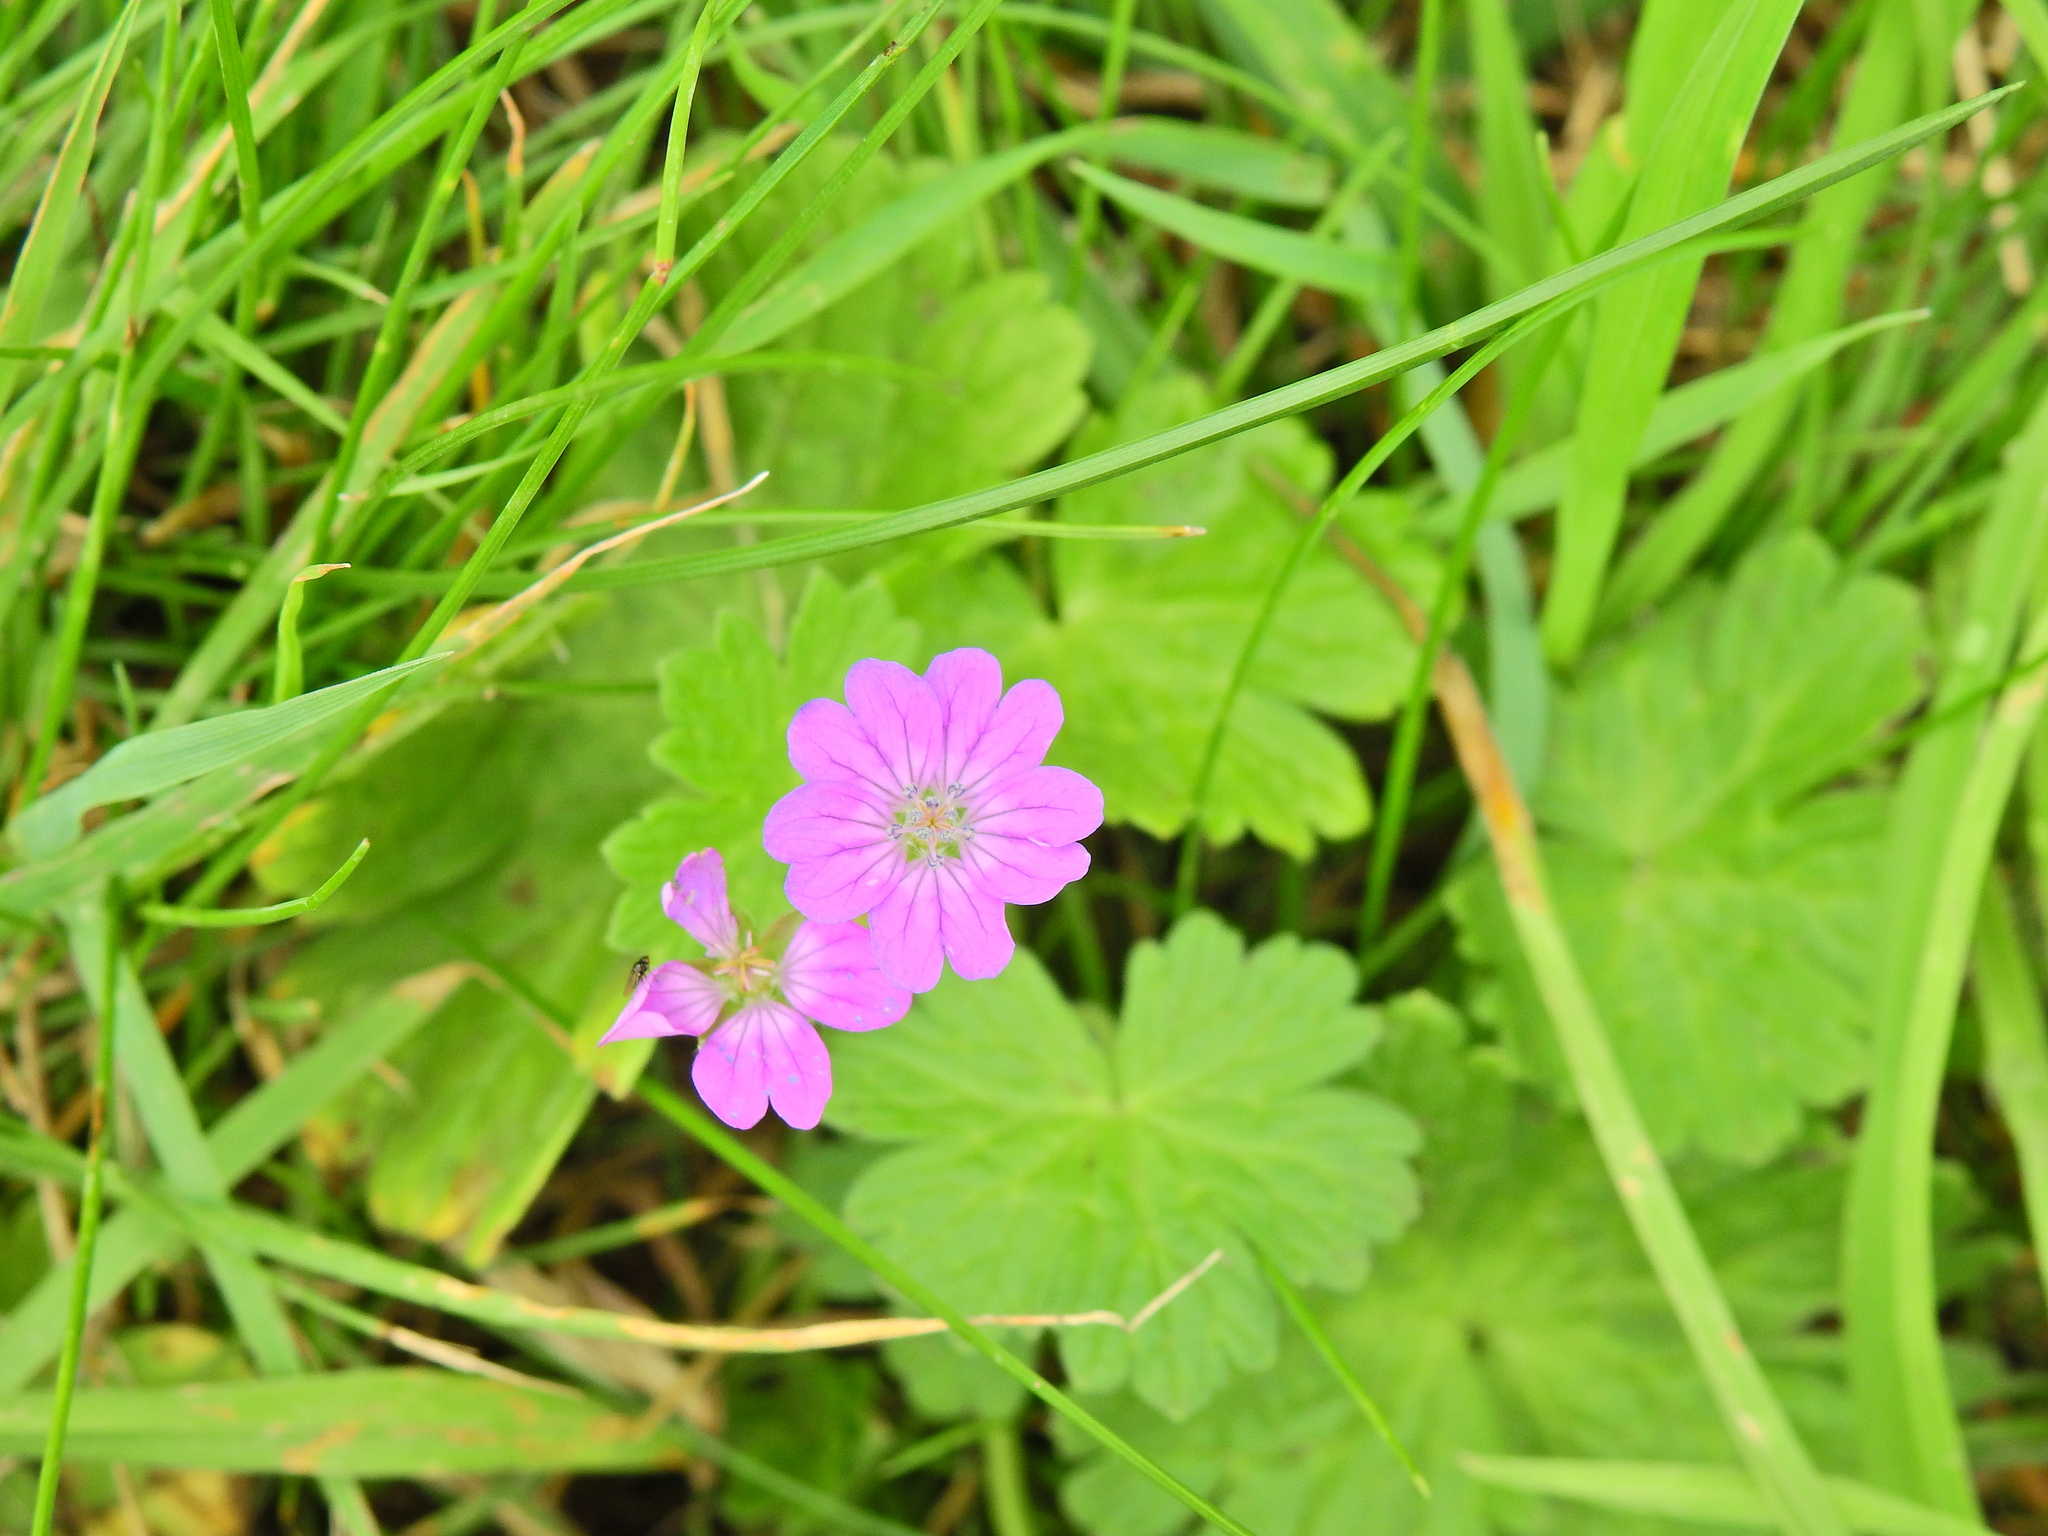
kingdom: Plantae
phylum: Tracheophyta
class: Magnoliopsida
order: Geraniales
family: Geraniaceae
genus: Geranium
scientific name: Geranium pyrenaicum
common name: Hedgerow crane's-bill
